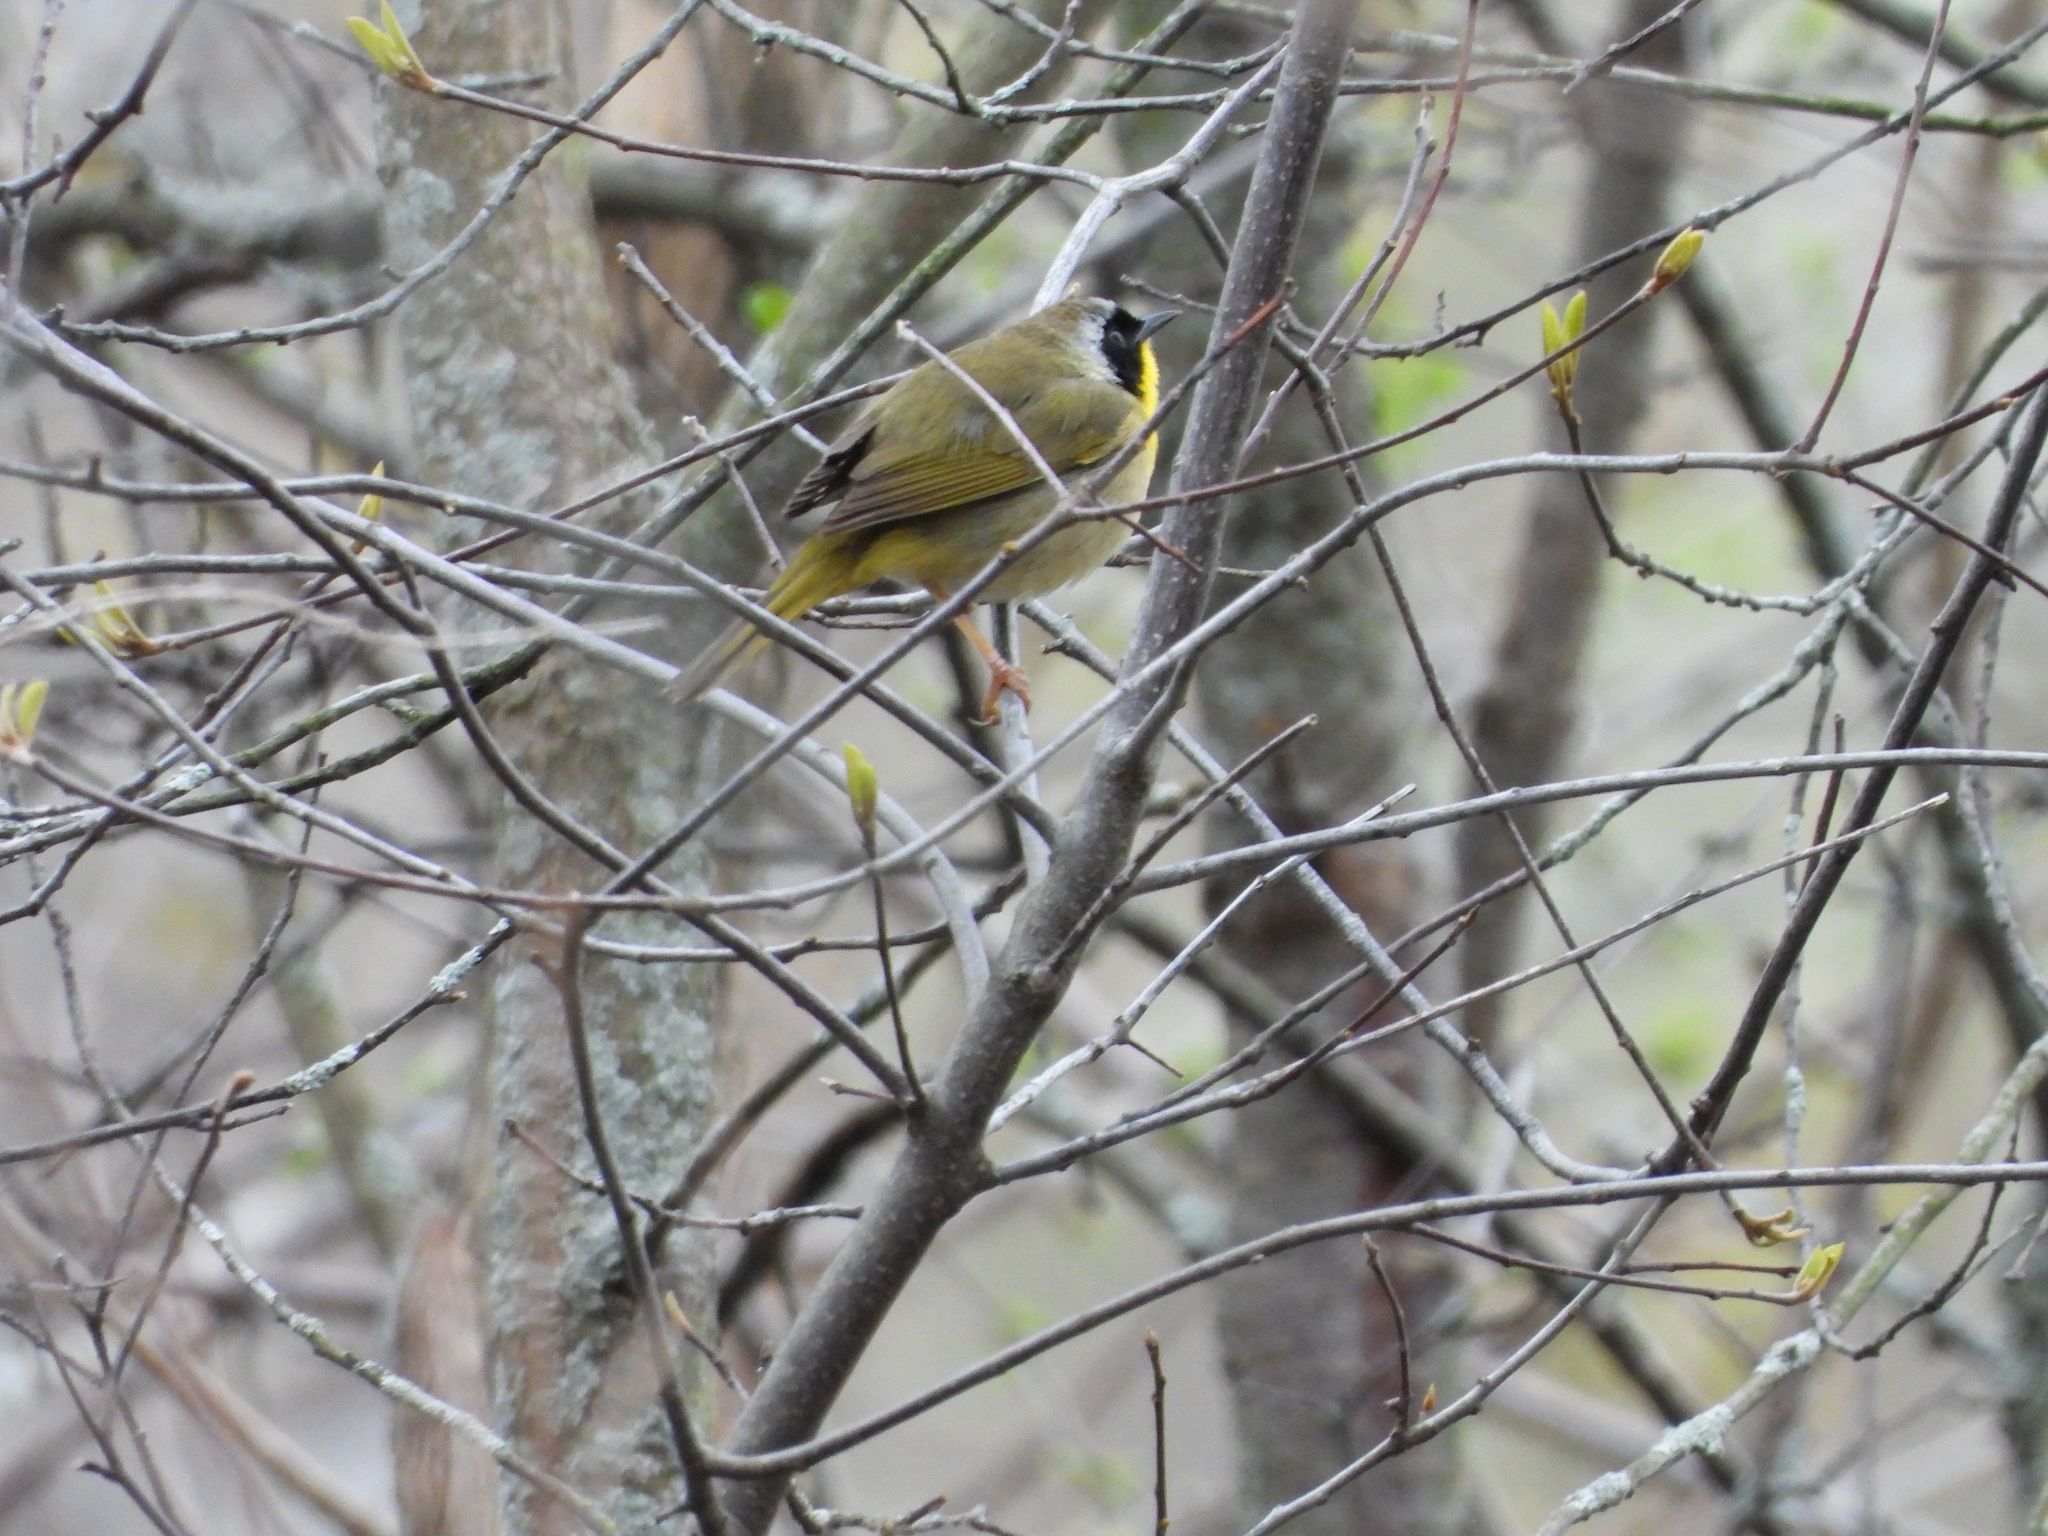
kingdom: Animalia
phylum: Chordata
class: Aves
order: Passeriformes
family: Parulidae
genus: Geothlypis
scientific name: Geothlypis trichas
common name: Common yellowthroat
